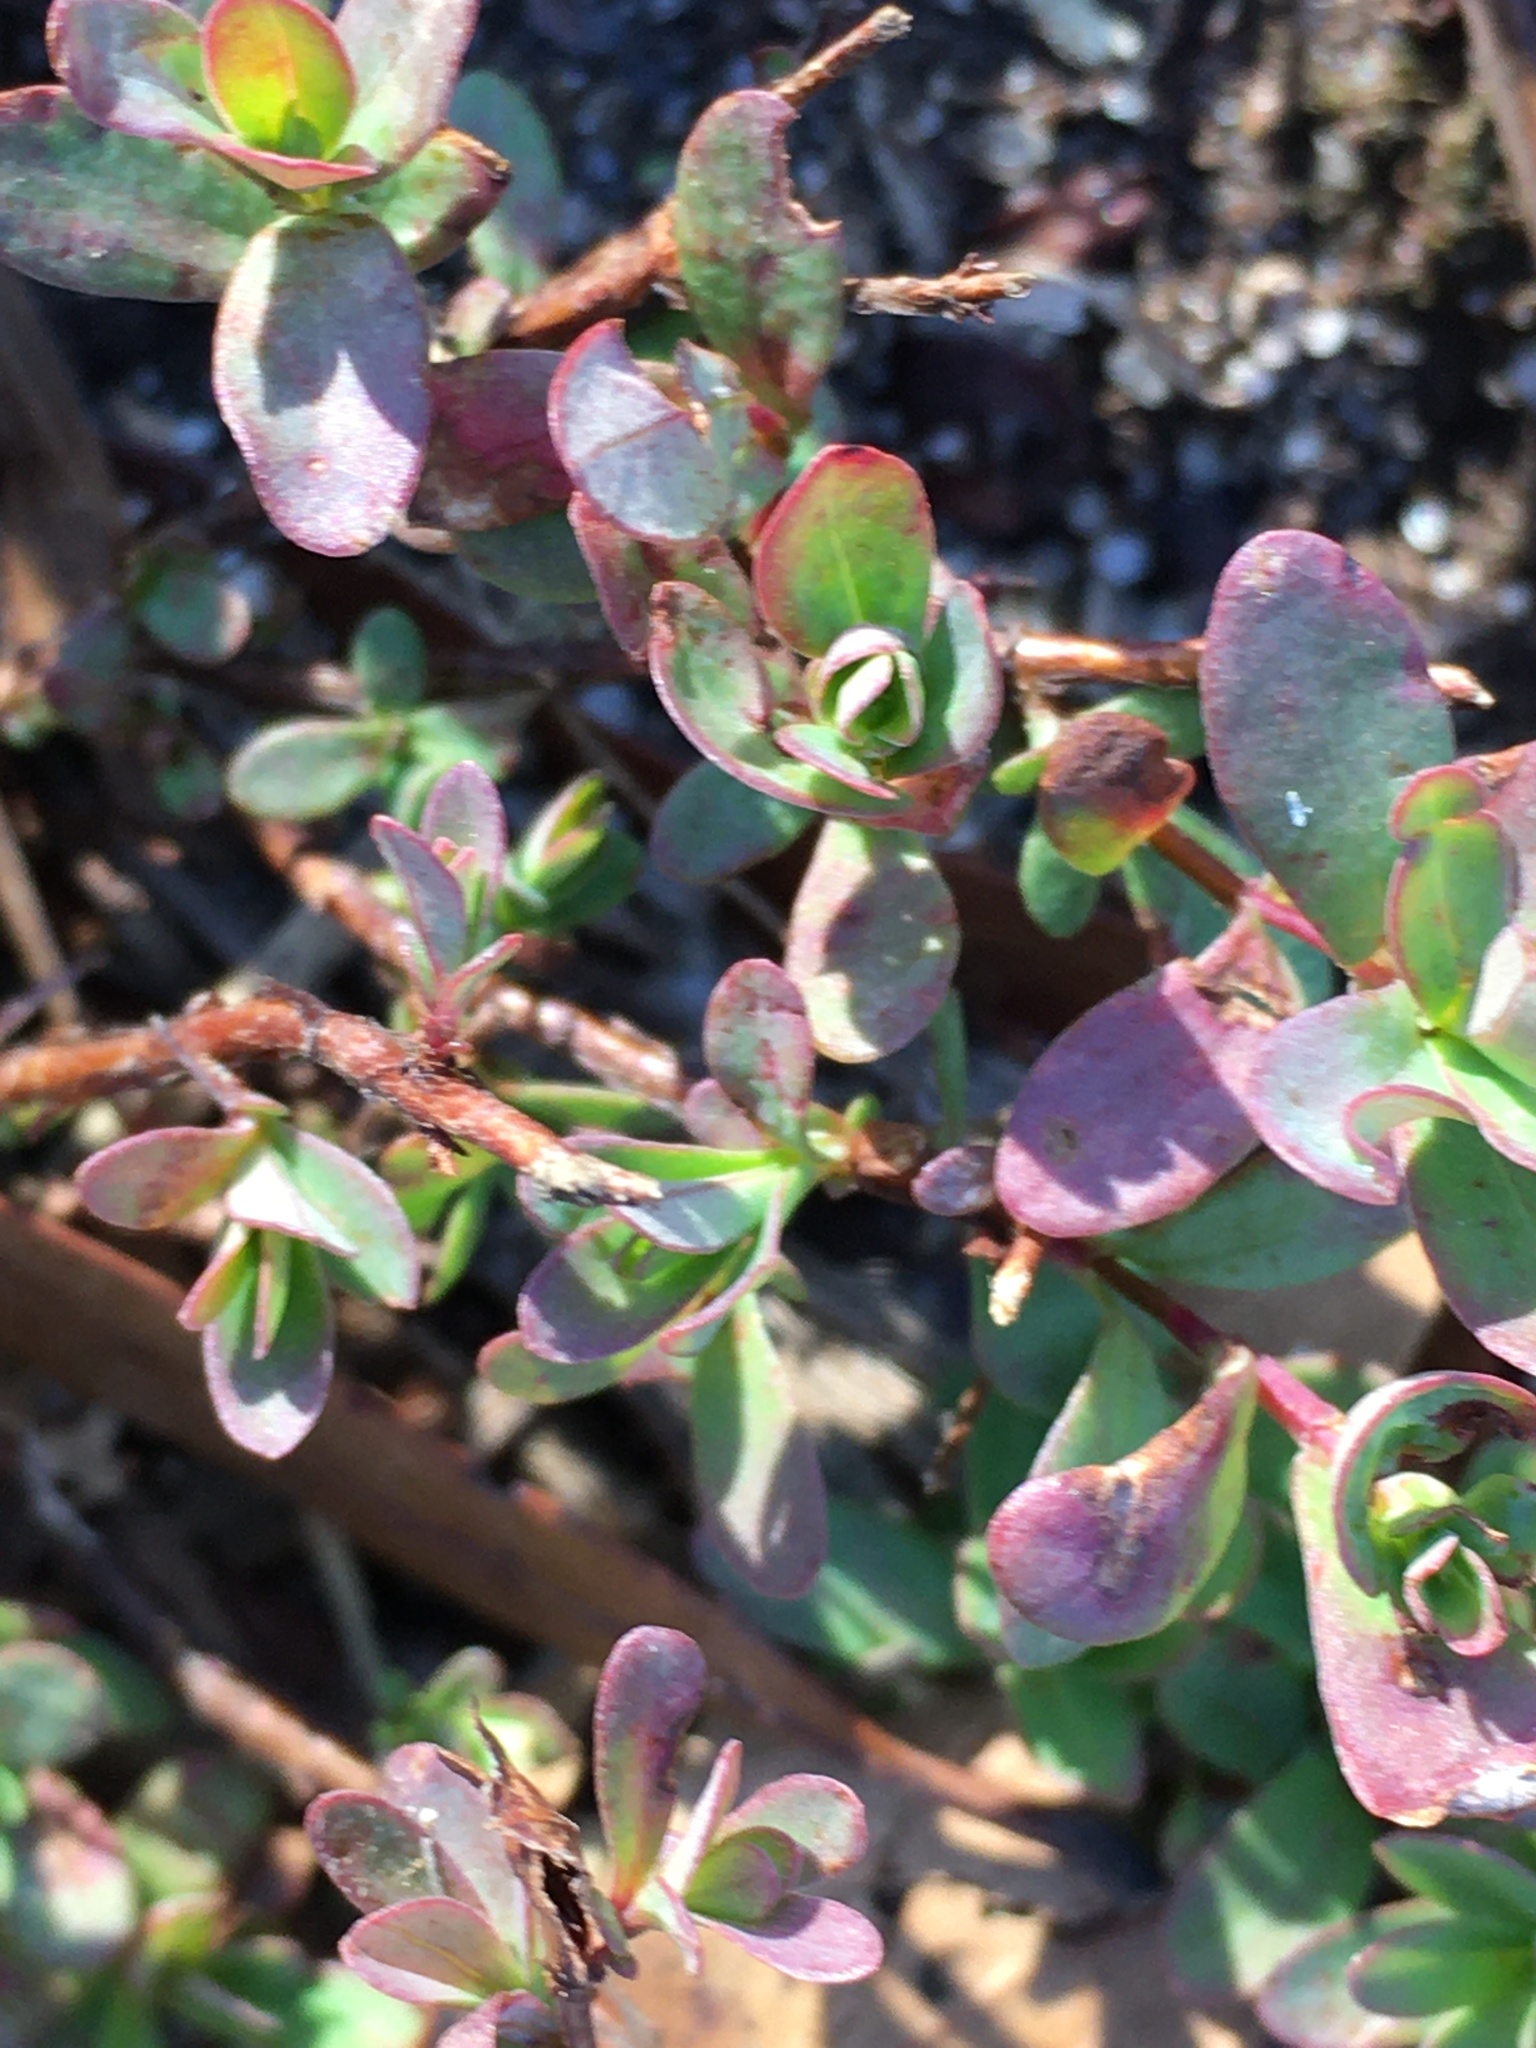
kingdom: Plantae
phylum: Tracheophyta
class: Magnoliopsida
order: Malpighiales
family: Hypericaceae
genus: Hypericum
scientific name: Hypericum hypericoides
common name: St. andrew's cross
